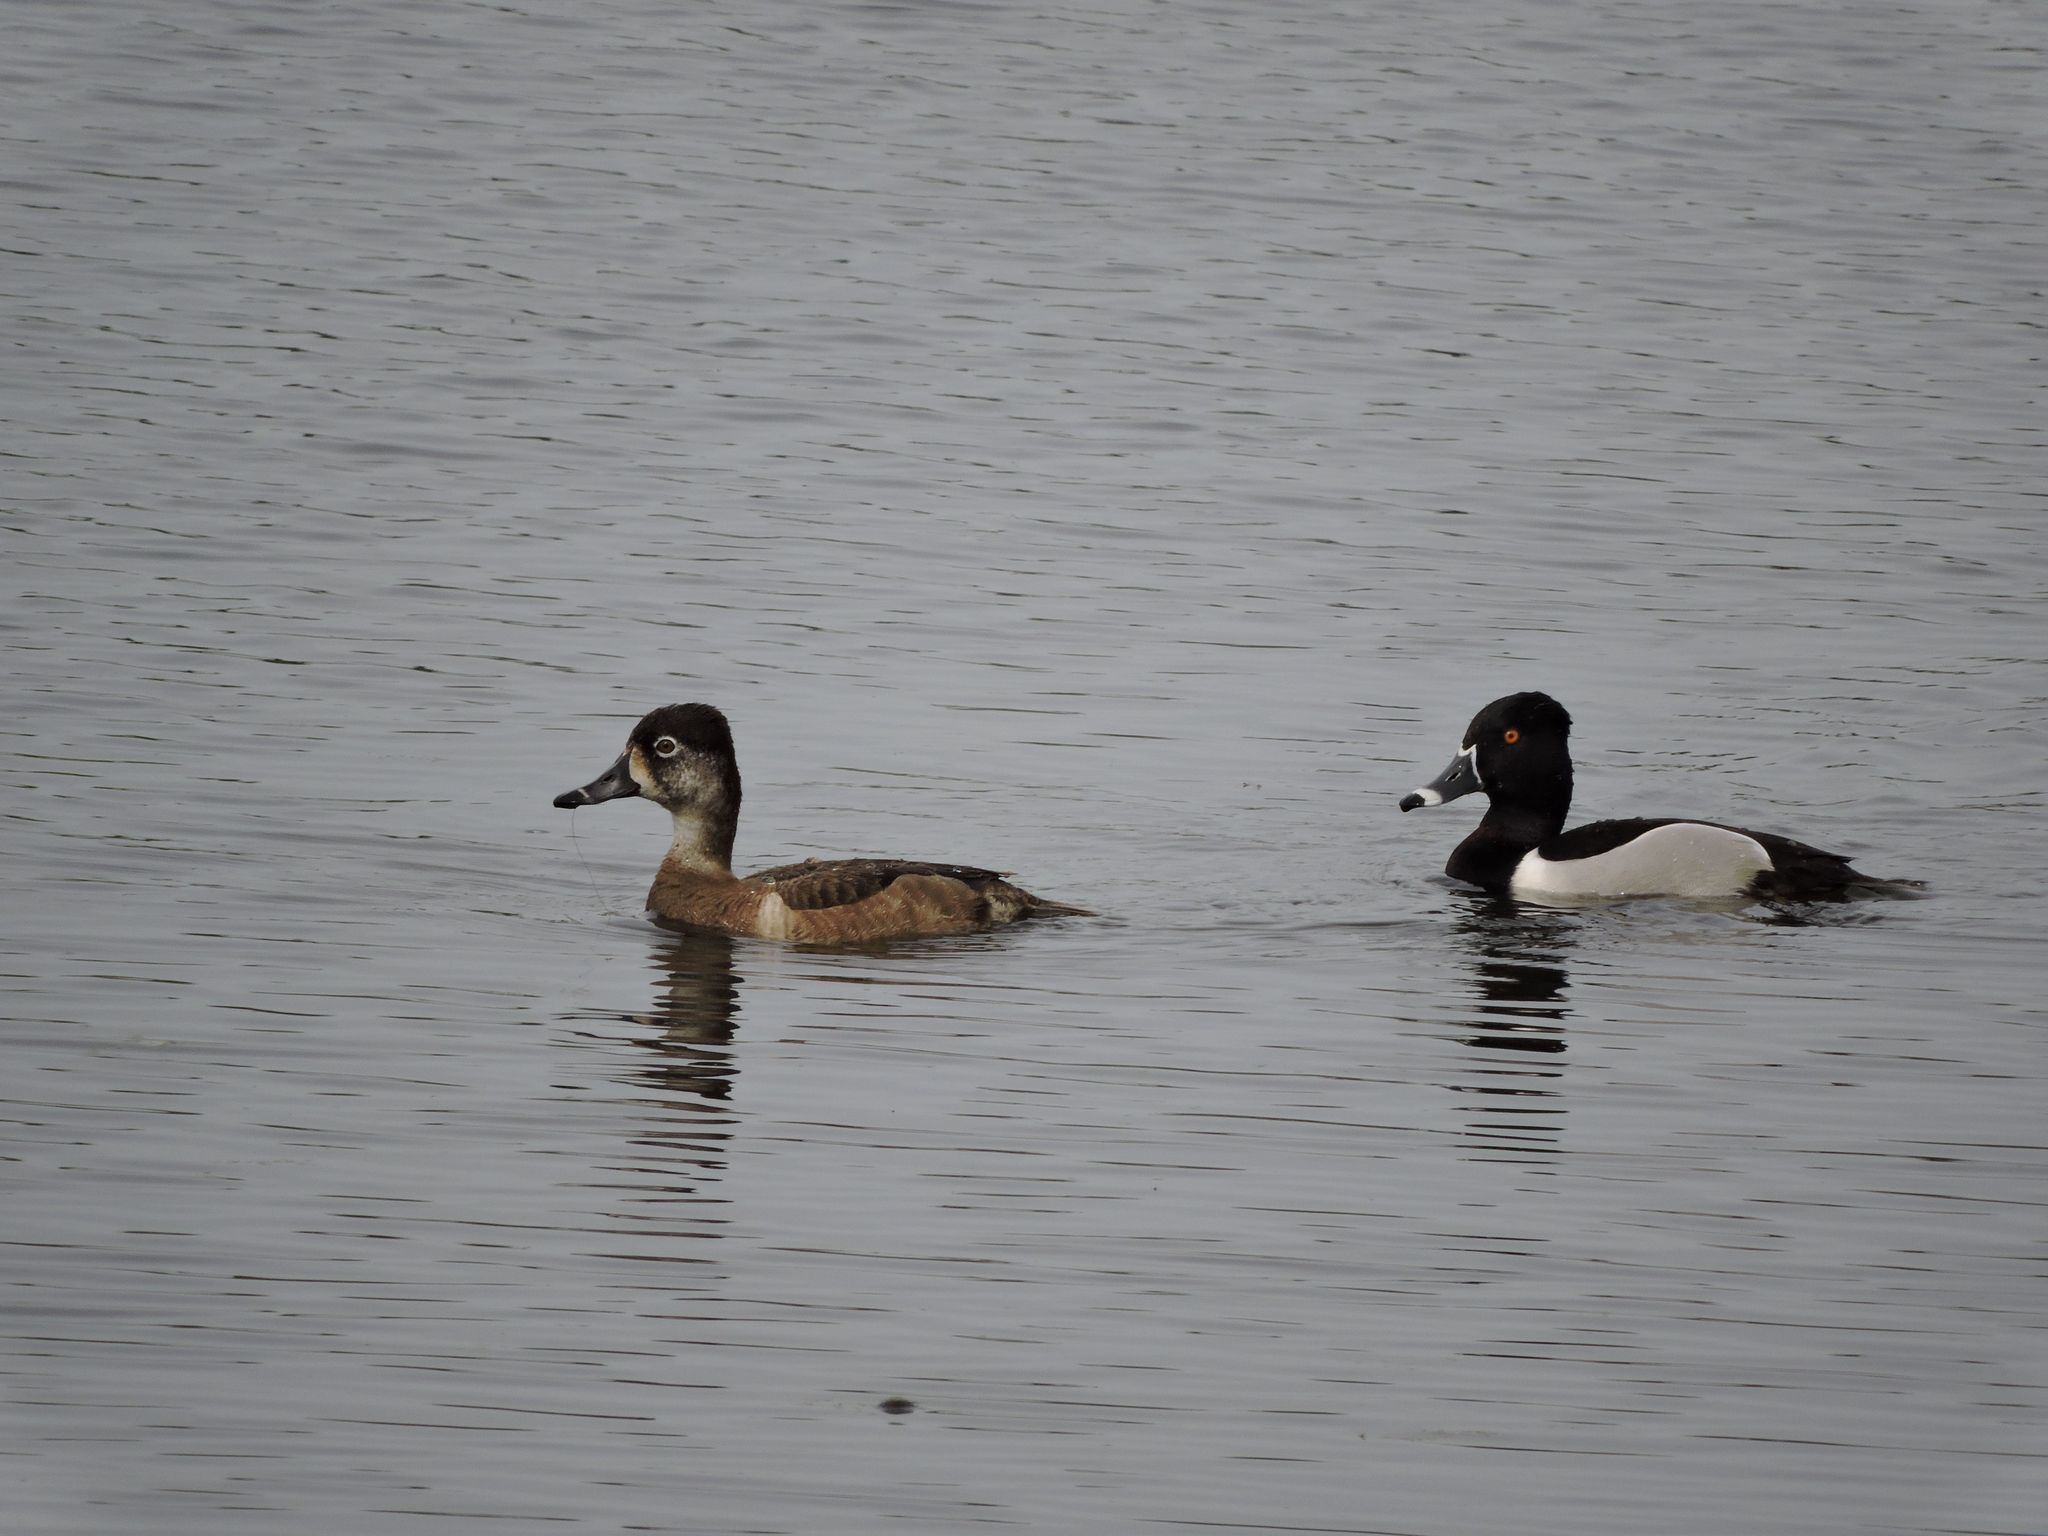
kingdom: Animalia
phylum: Chordata
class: Aves
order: Anseriformes
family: Anatidae
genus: Aythya
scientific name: Aythya collaris
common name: Ring-necked duck
